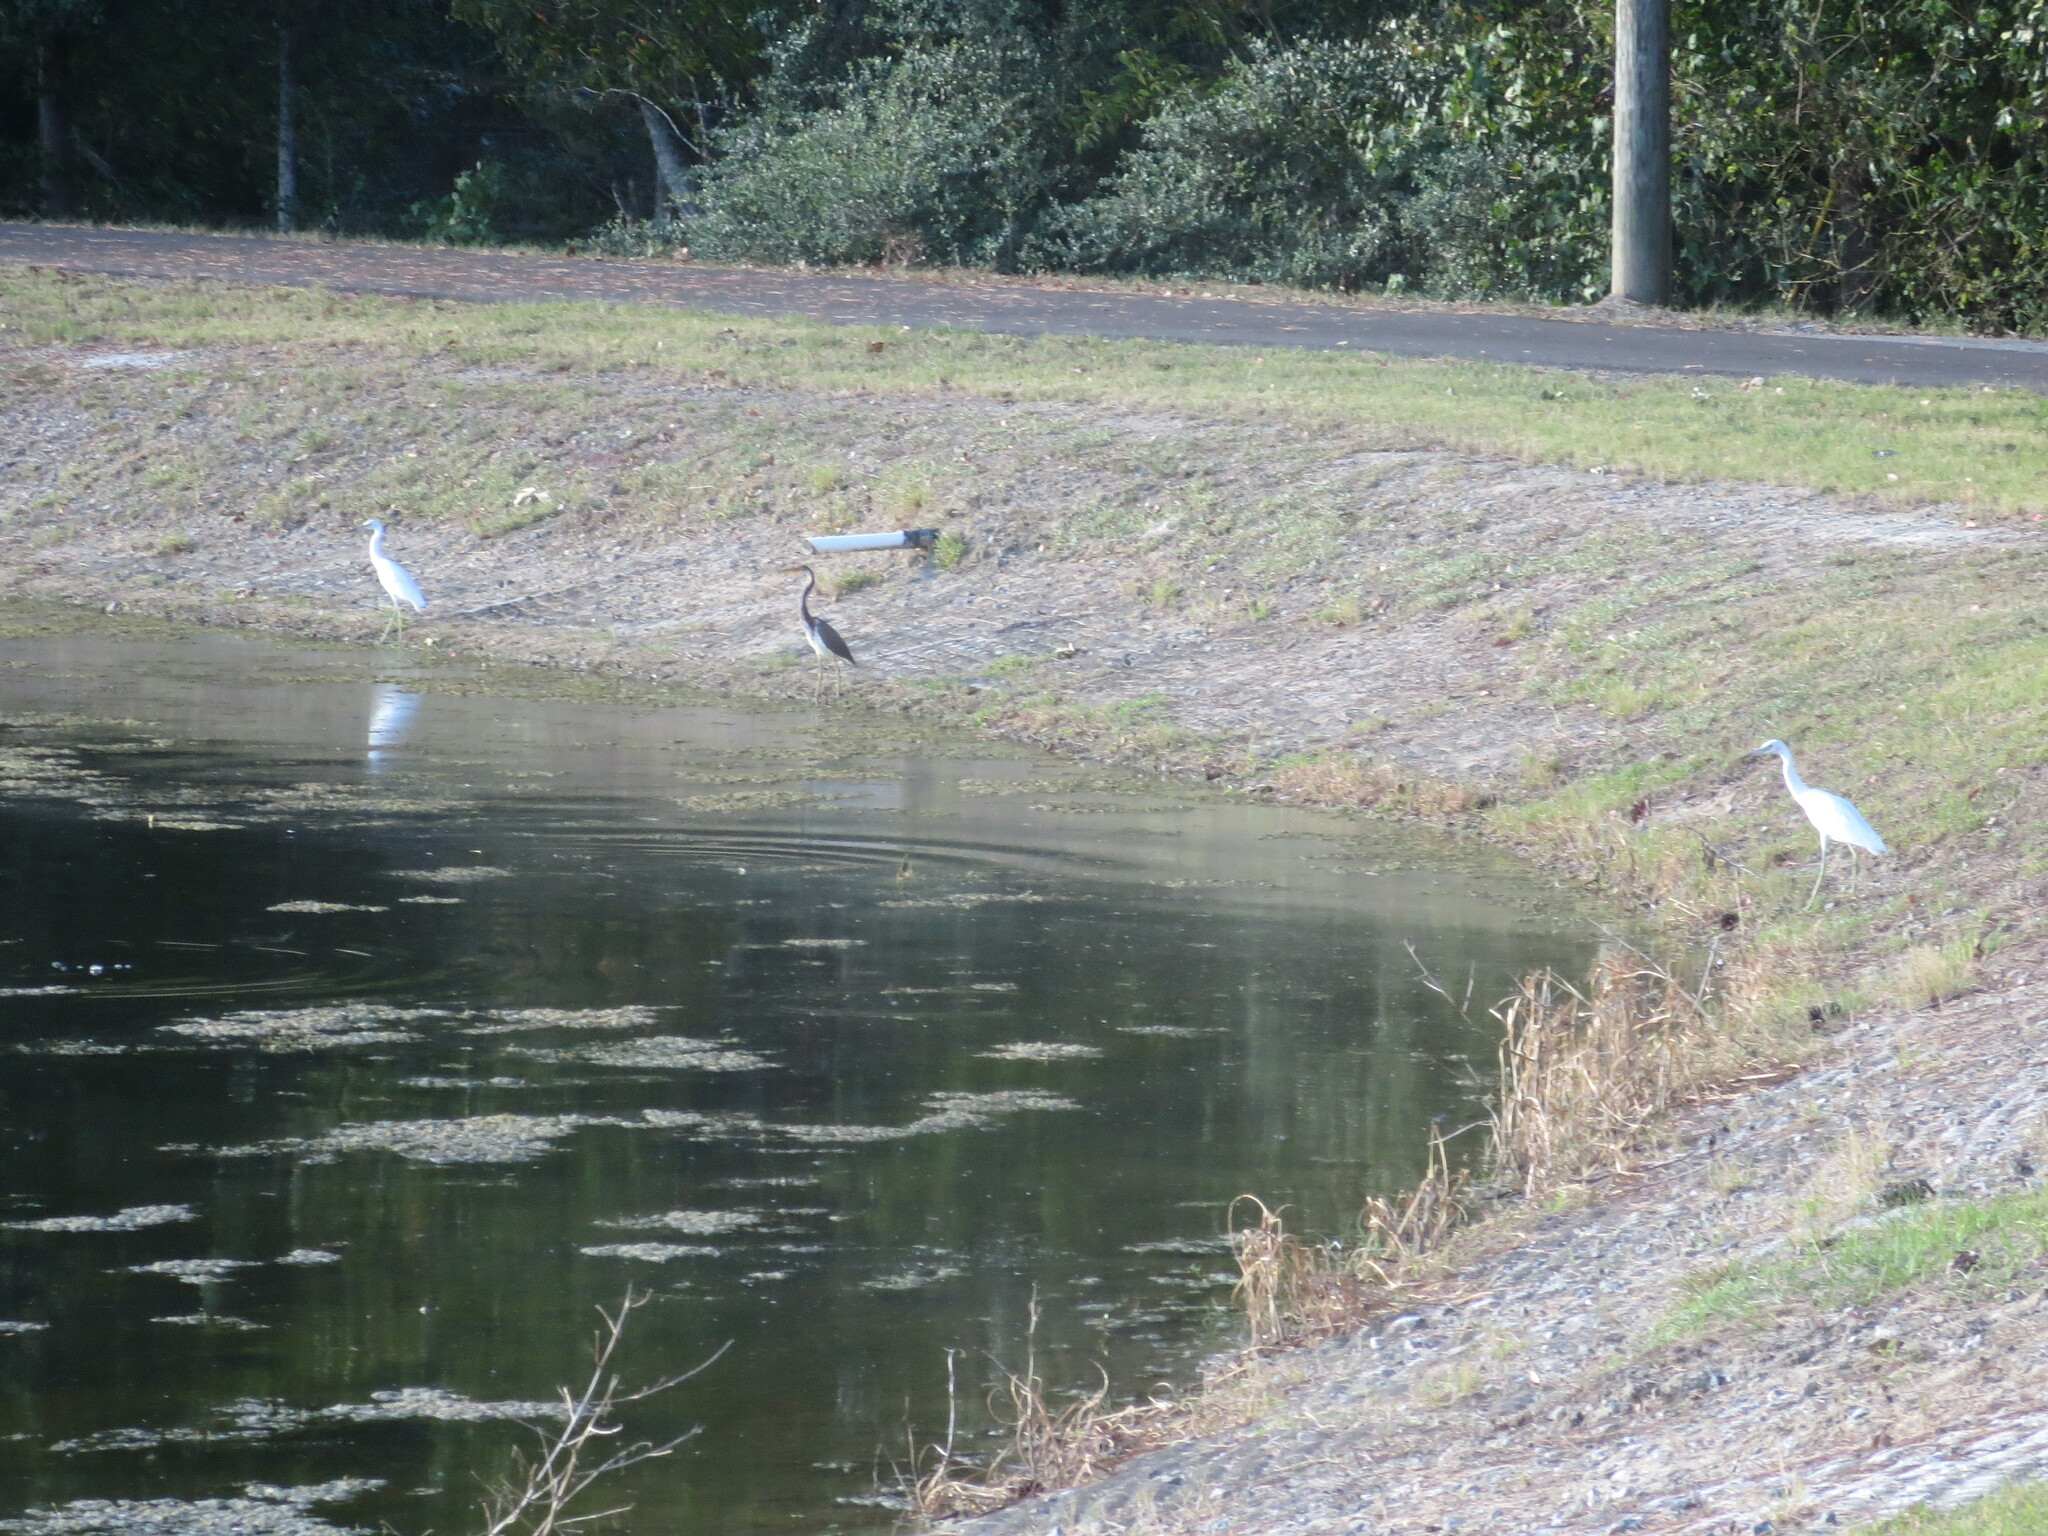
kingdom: Animalia
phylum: Chordata
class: Aves
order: Pelecaniformes
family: Ardeidae
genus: Egretta
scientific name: Egretta tricolor
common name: Tricolored heron
